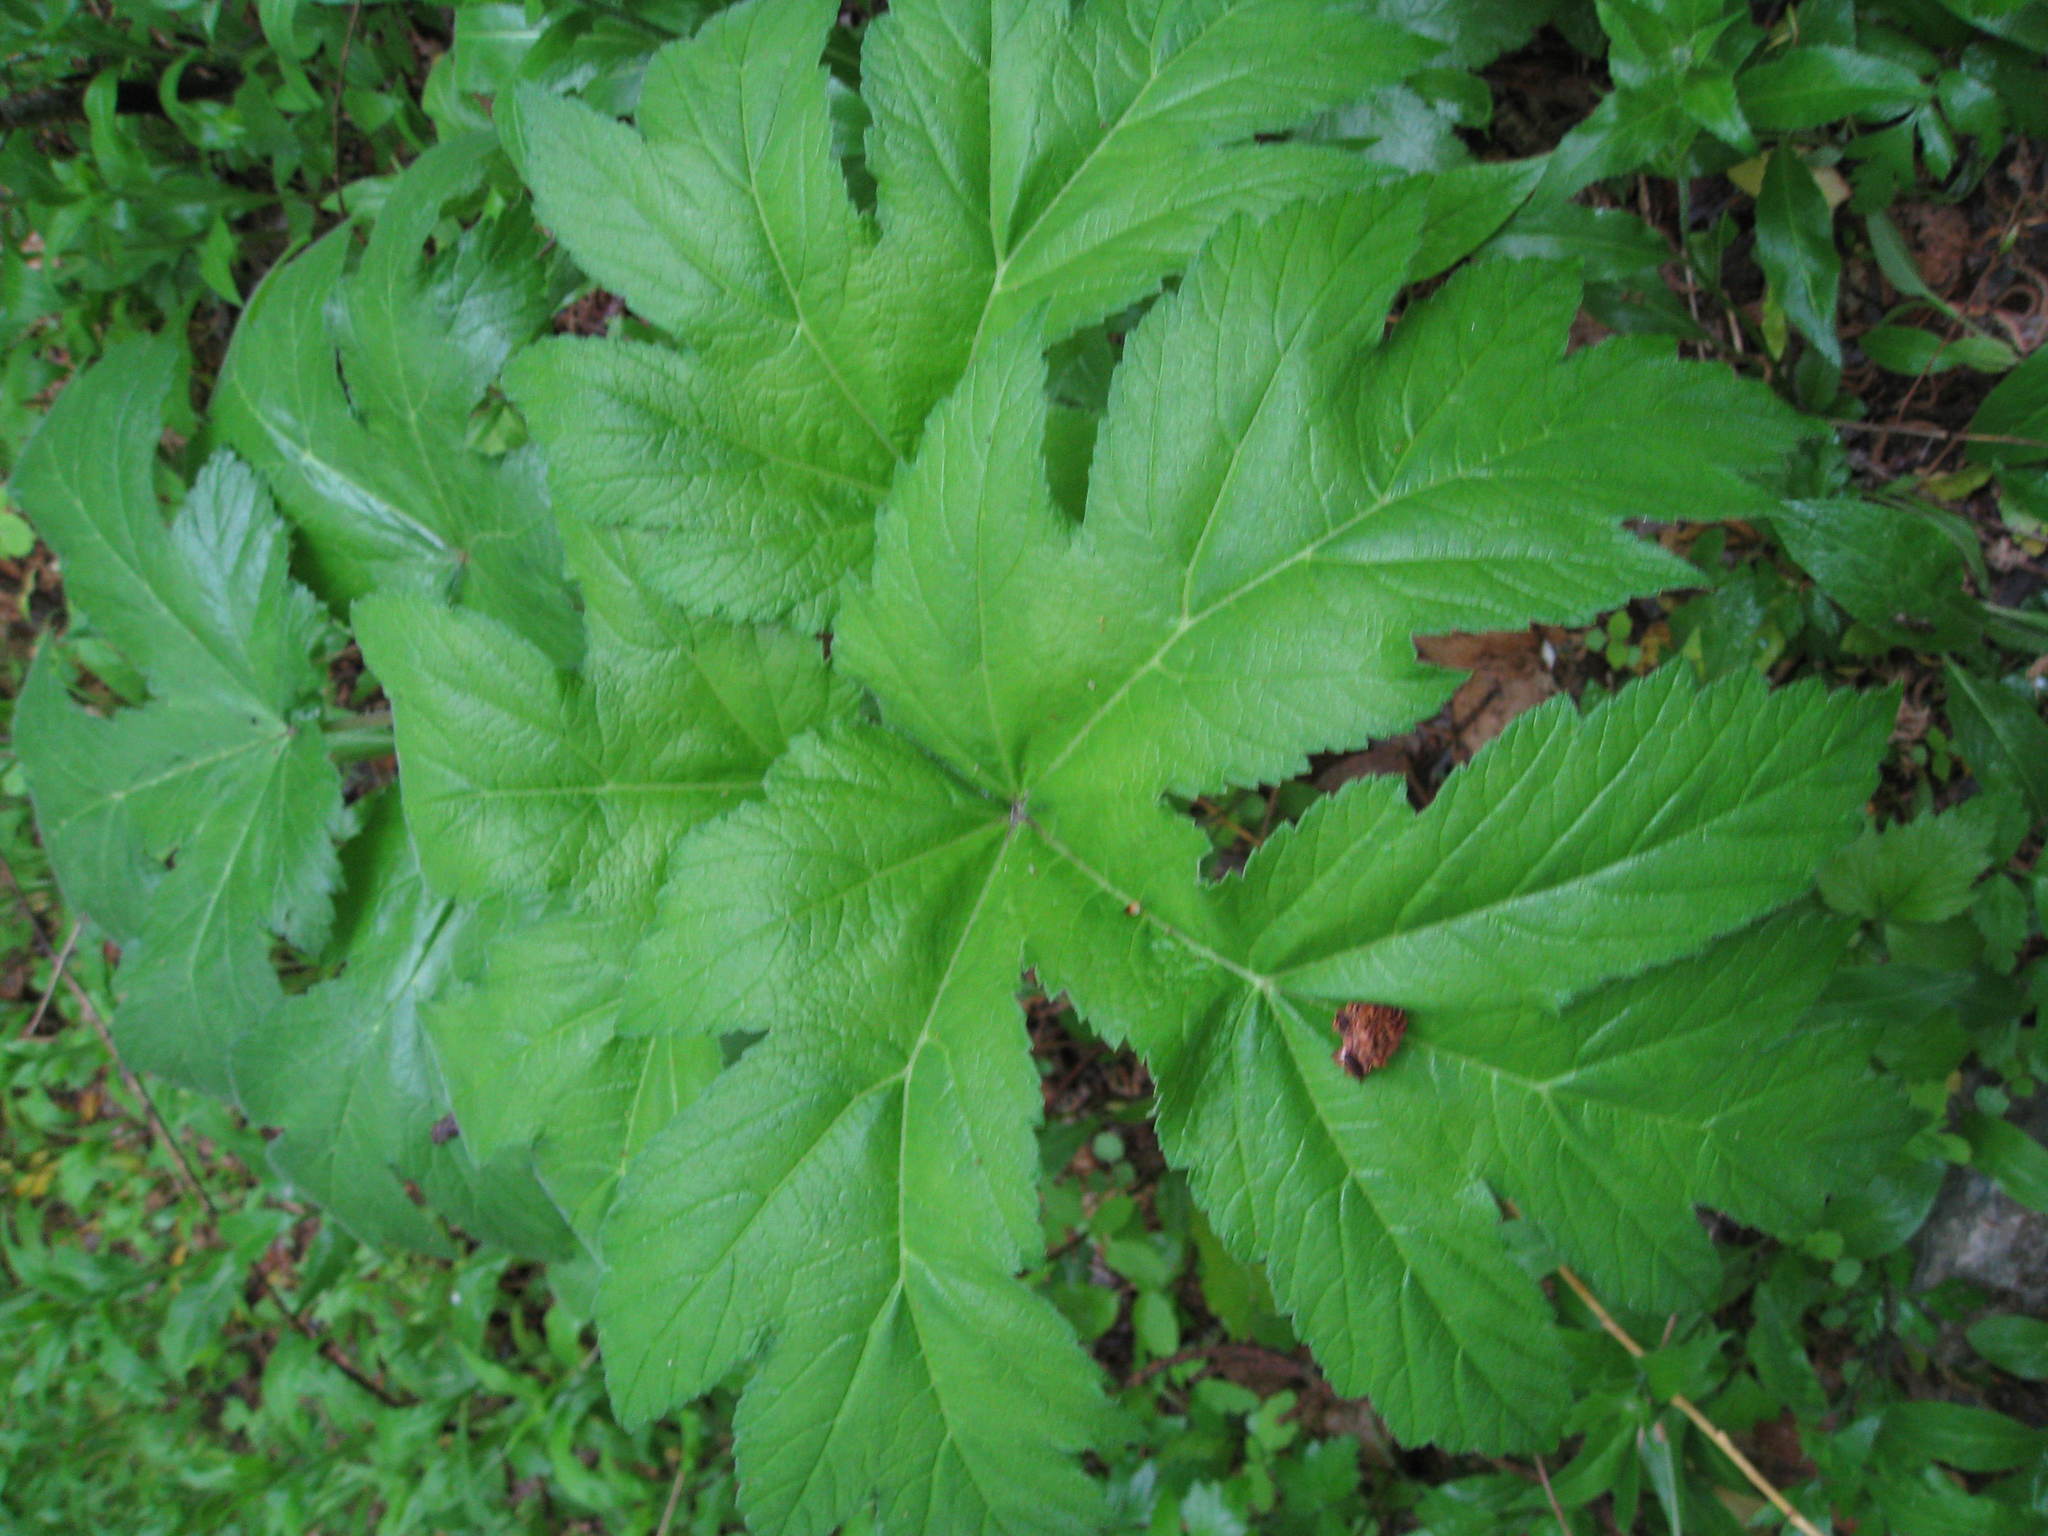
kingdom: Plantae
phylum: Tracheophyta
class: Magnoliopsida
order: Apiales
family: Apiaceae
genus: Heracleum
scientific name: Heracleum maximum
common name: American cow parsnip
